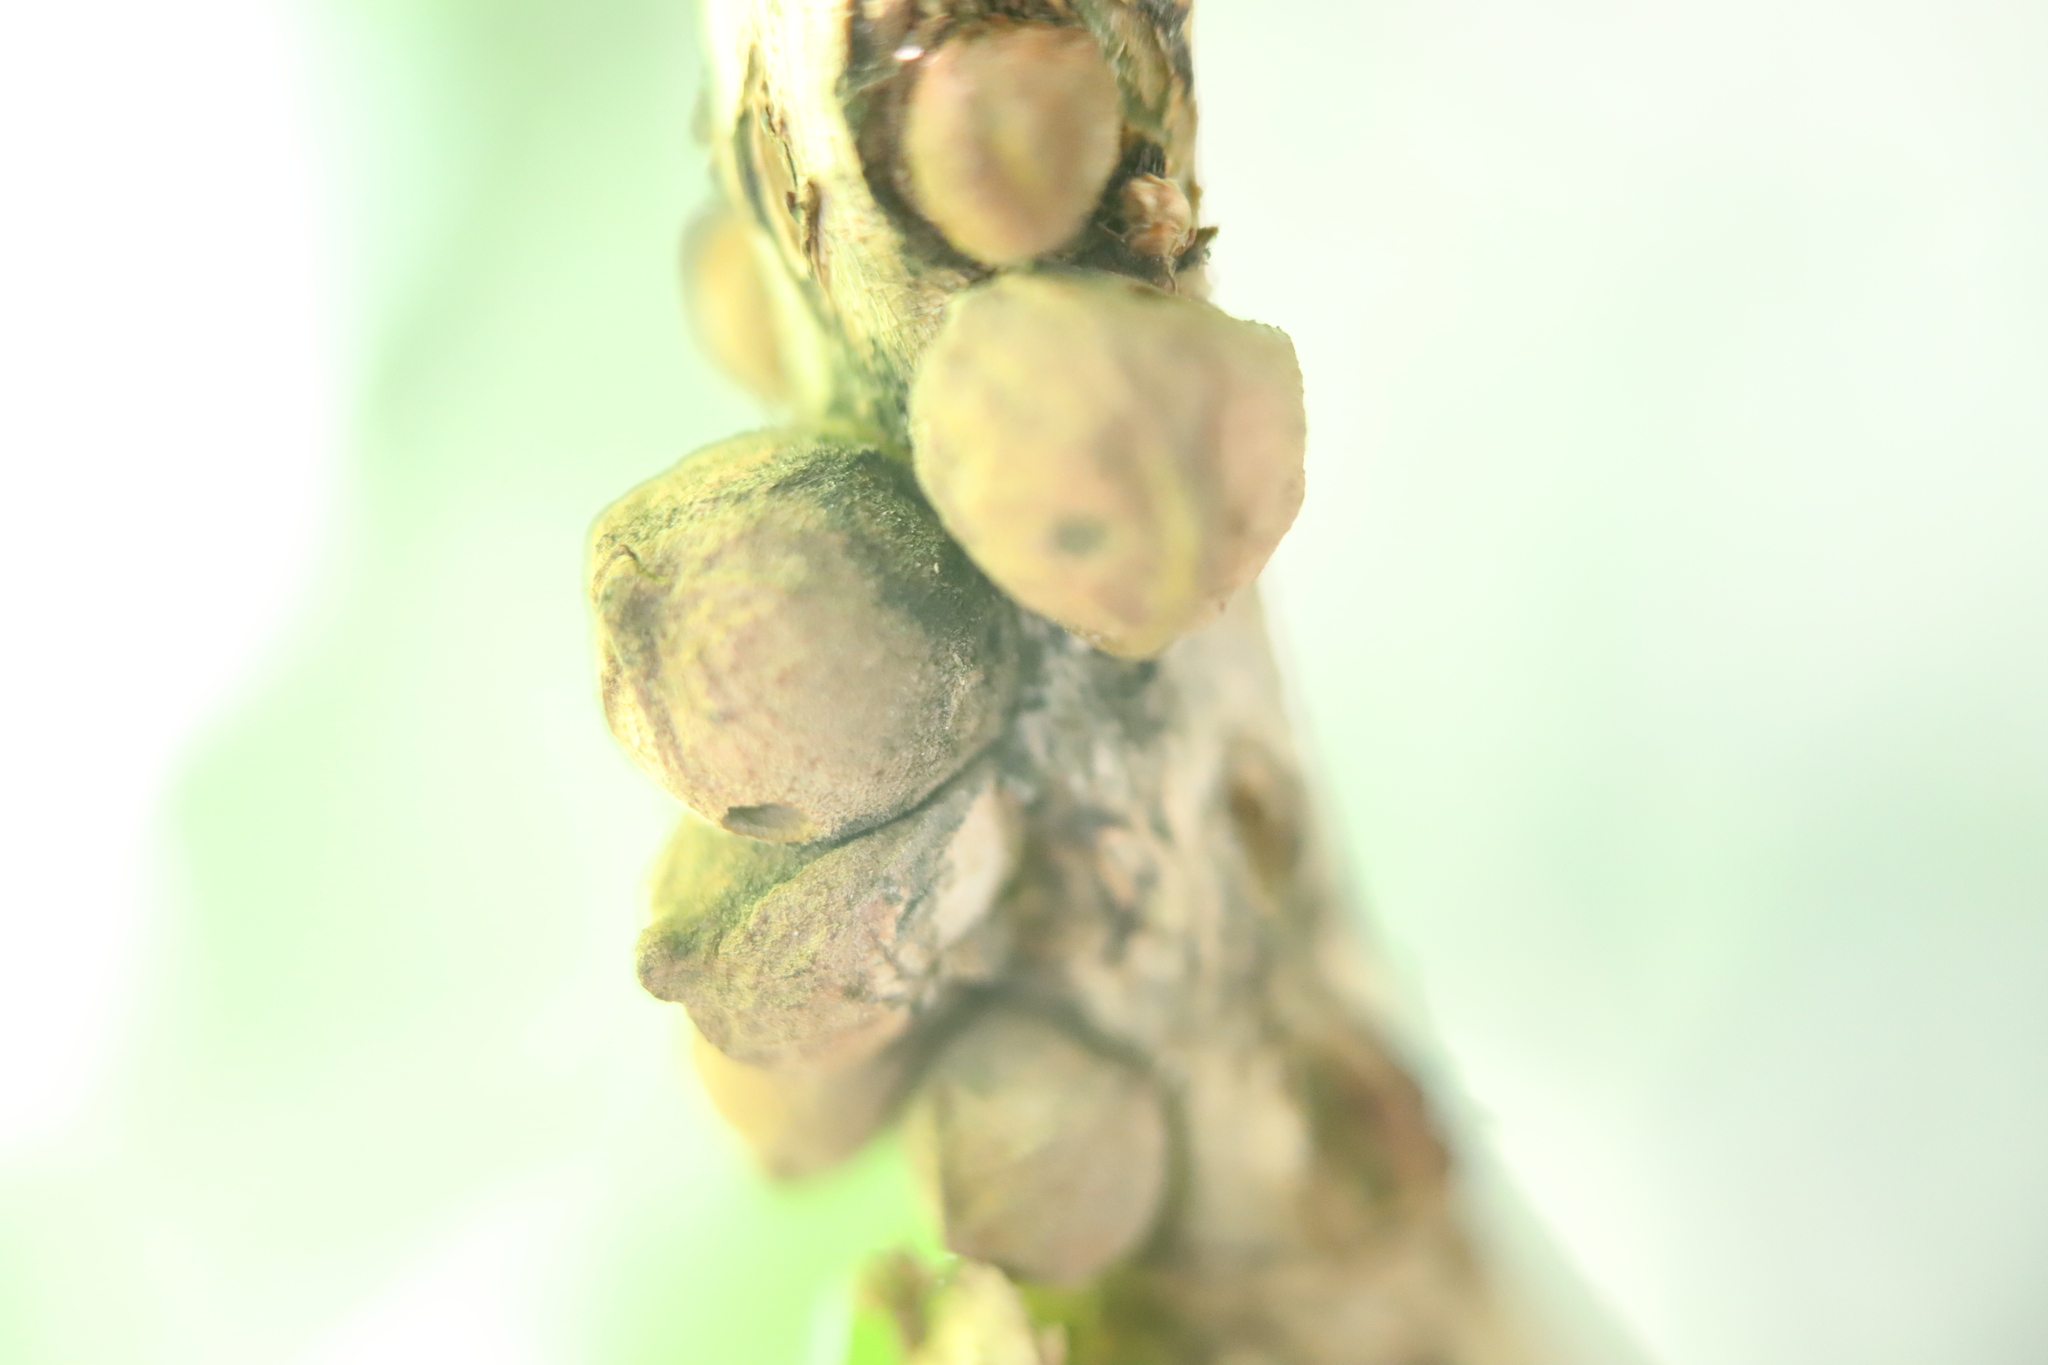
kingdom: Animalia
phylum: Arthropoda
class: Insecta
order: Hymenoptera
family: Cynipidae
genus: Disholcaspis
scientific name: Disholcaspis
